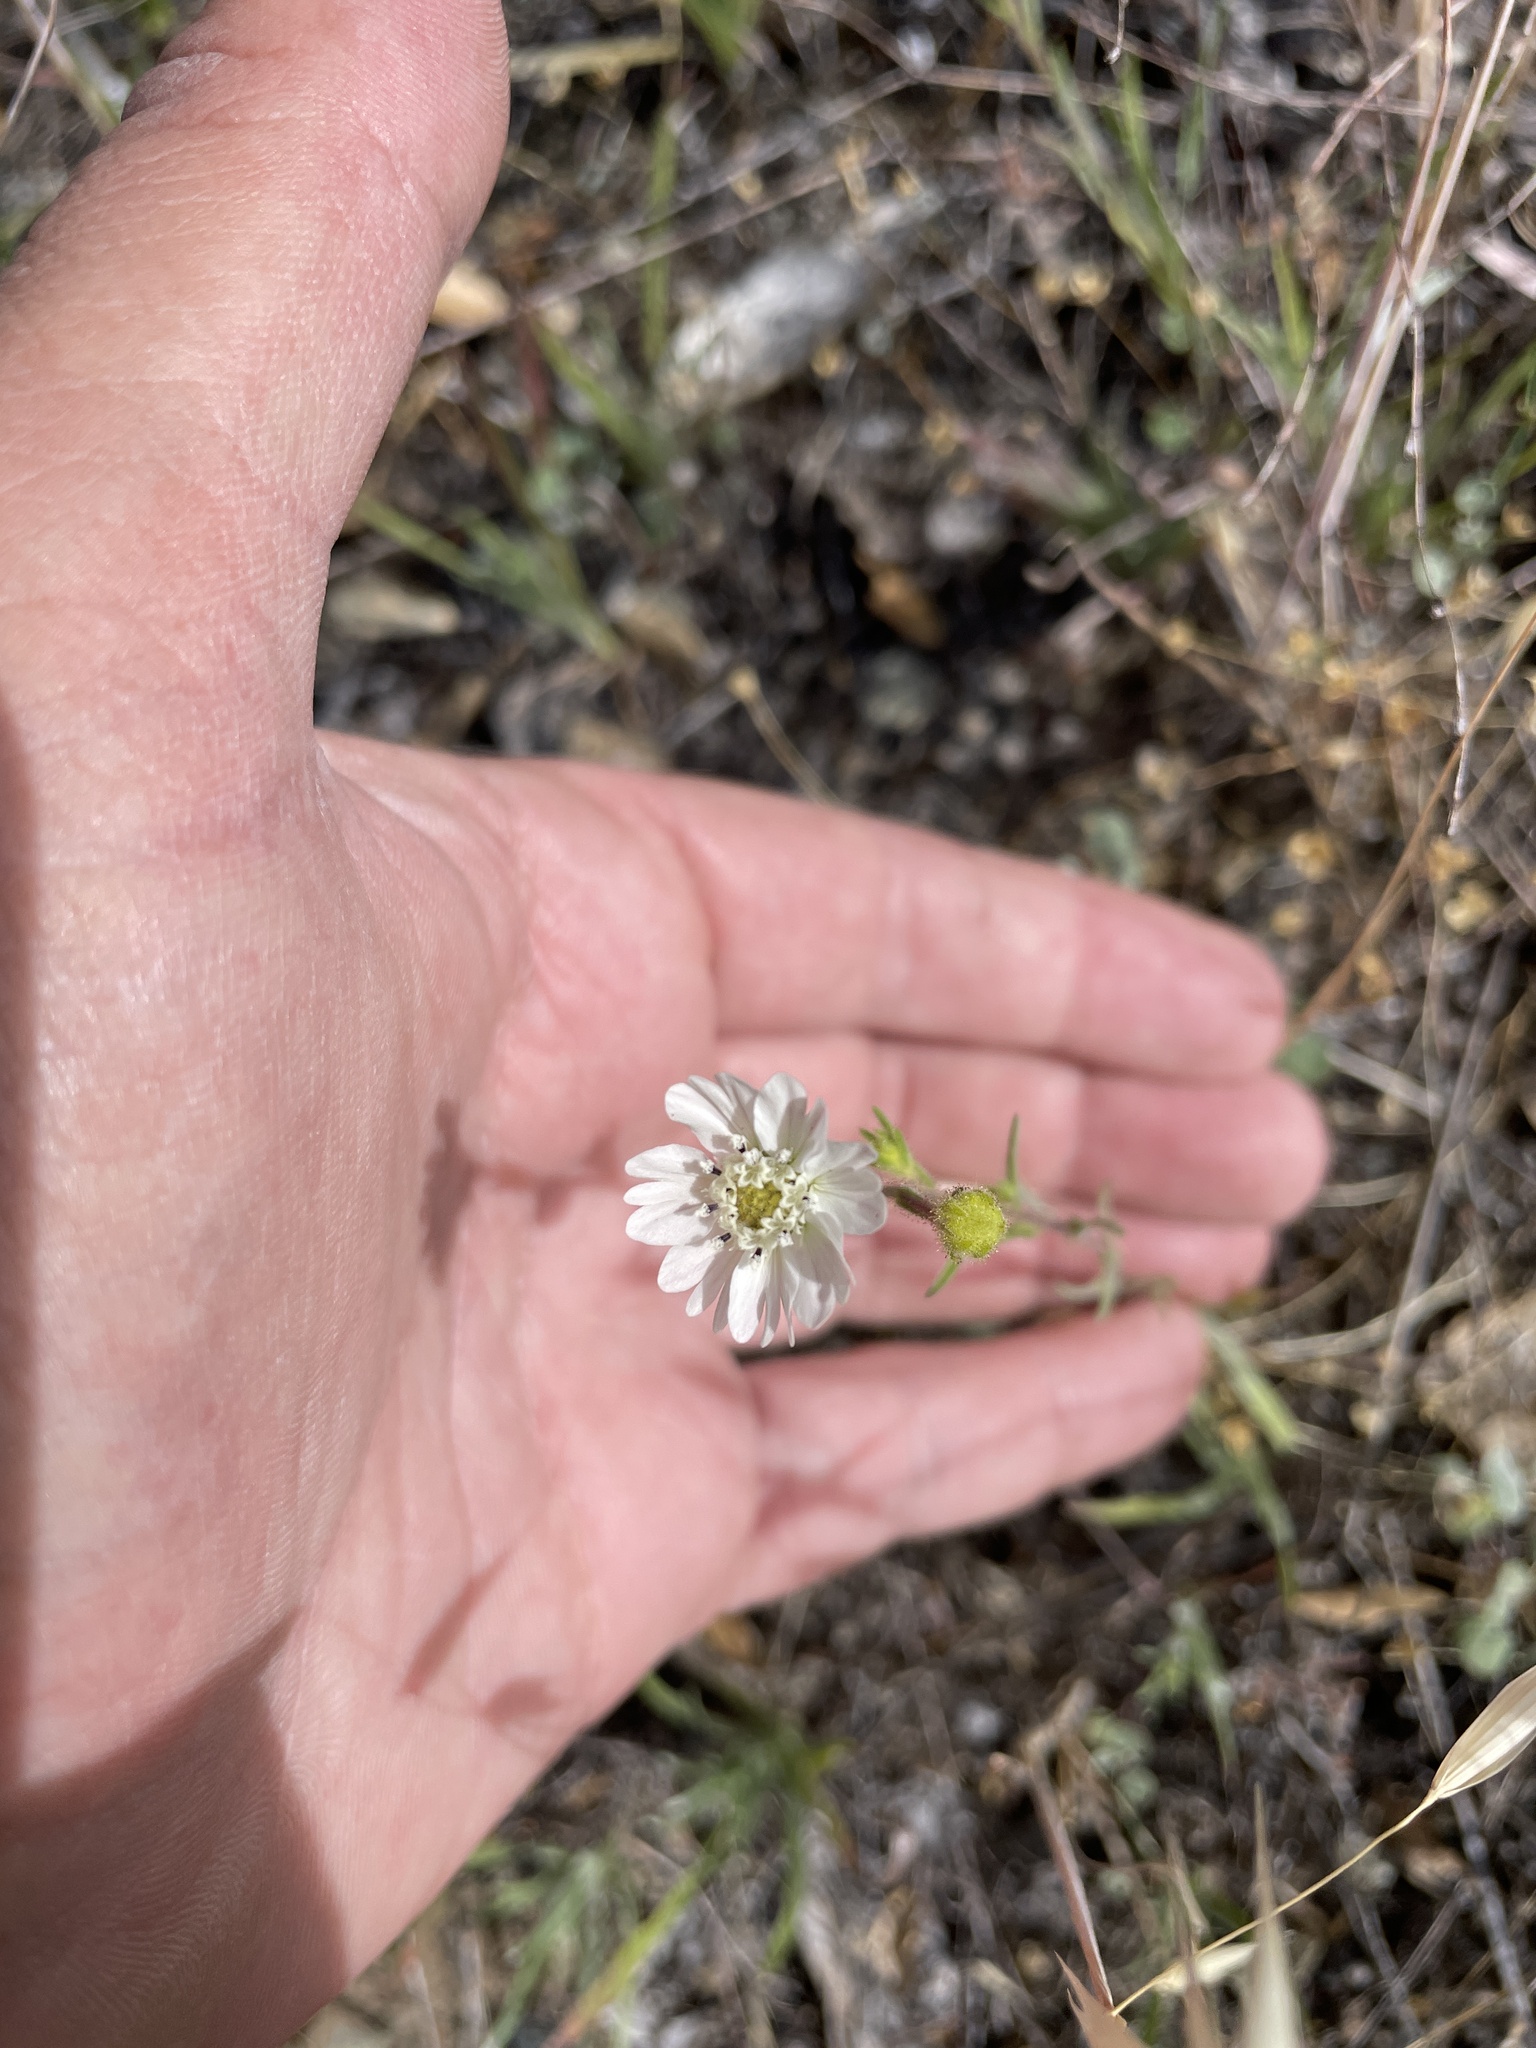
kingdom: Plantae
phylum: Tracheophyta
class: Magnoliopsida
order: Asterales
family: Asteraceae
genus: Hemizonia
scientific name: Hemizonia congesta
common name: Hayfield tarweed
